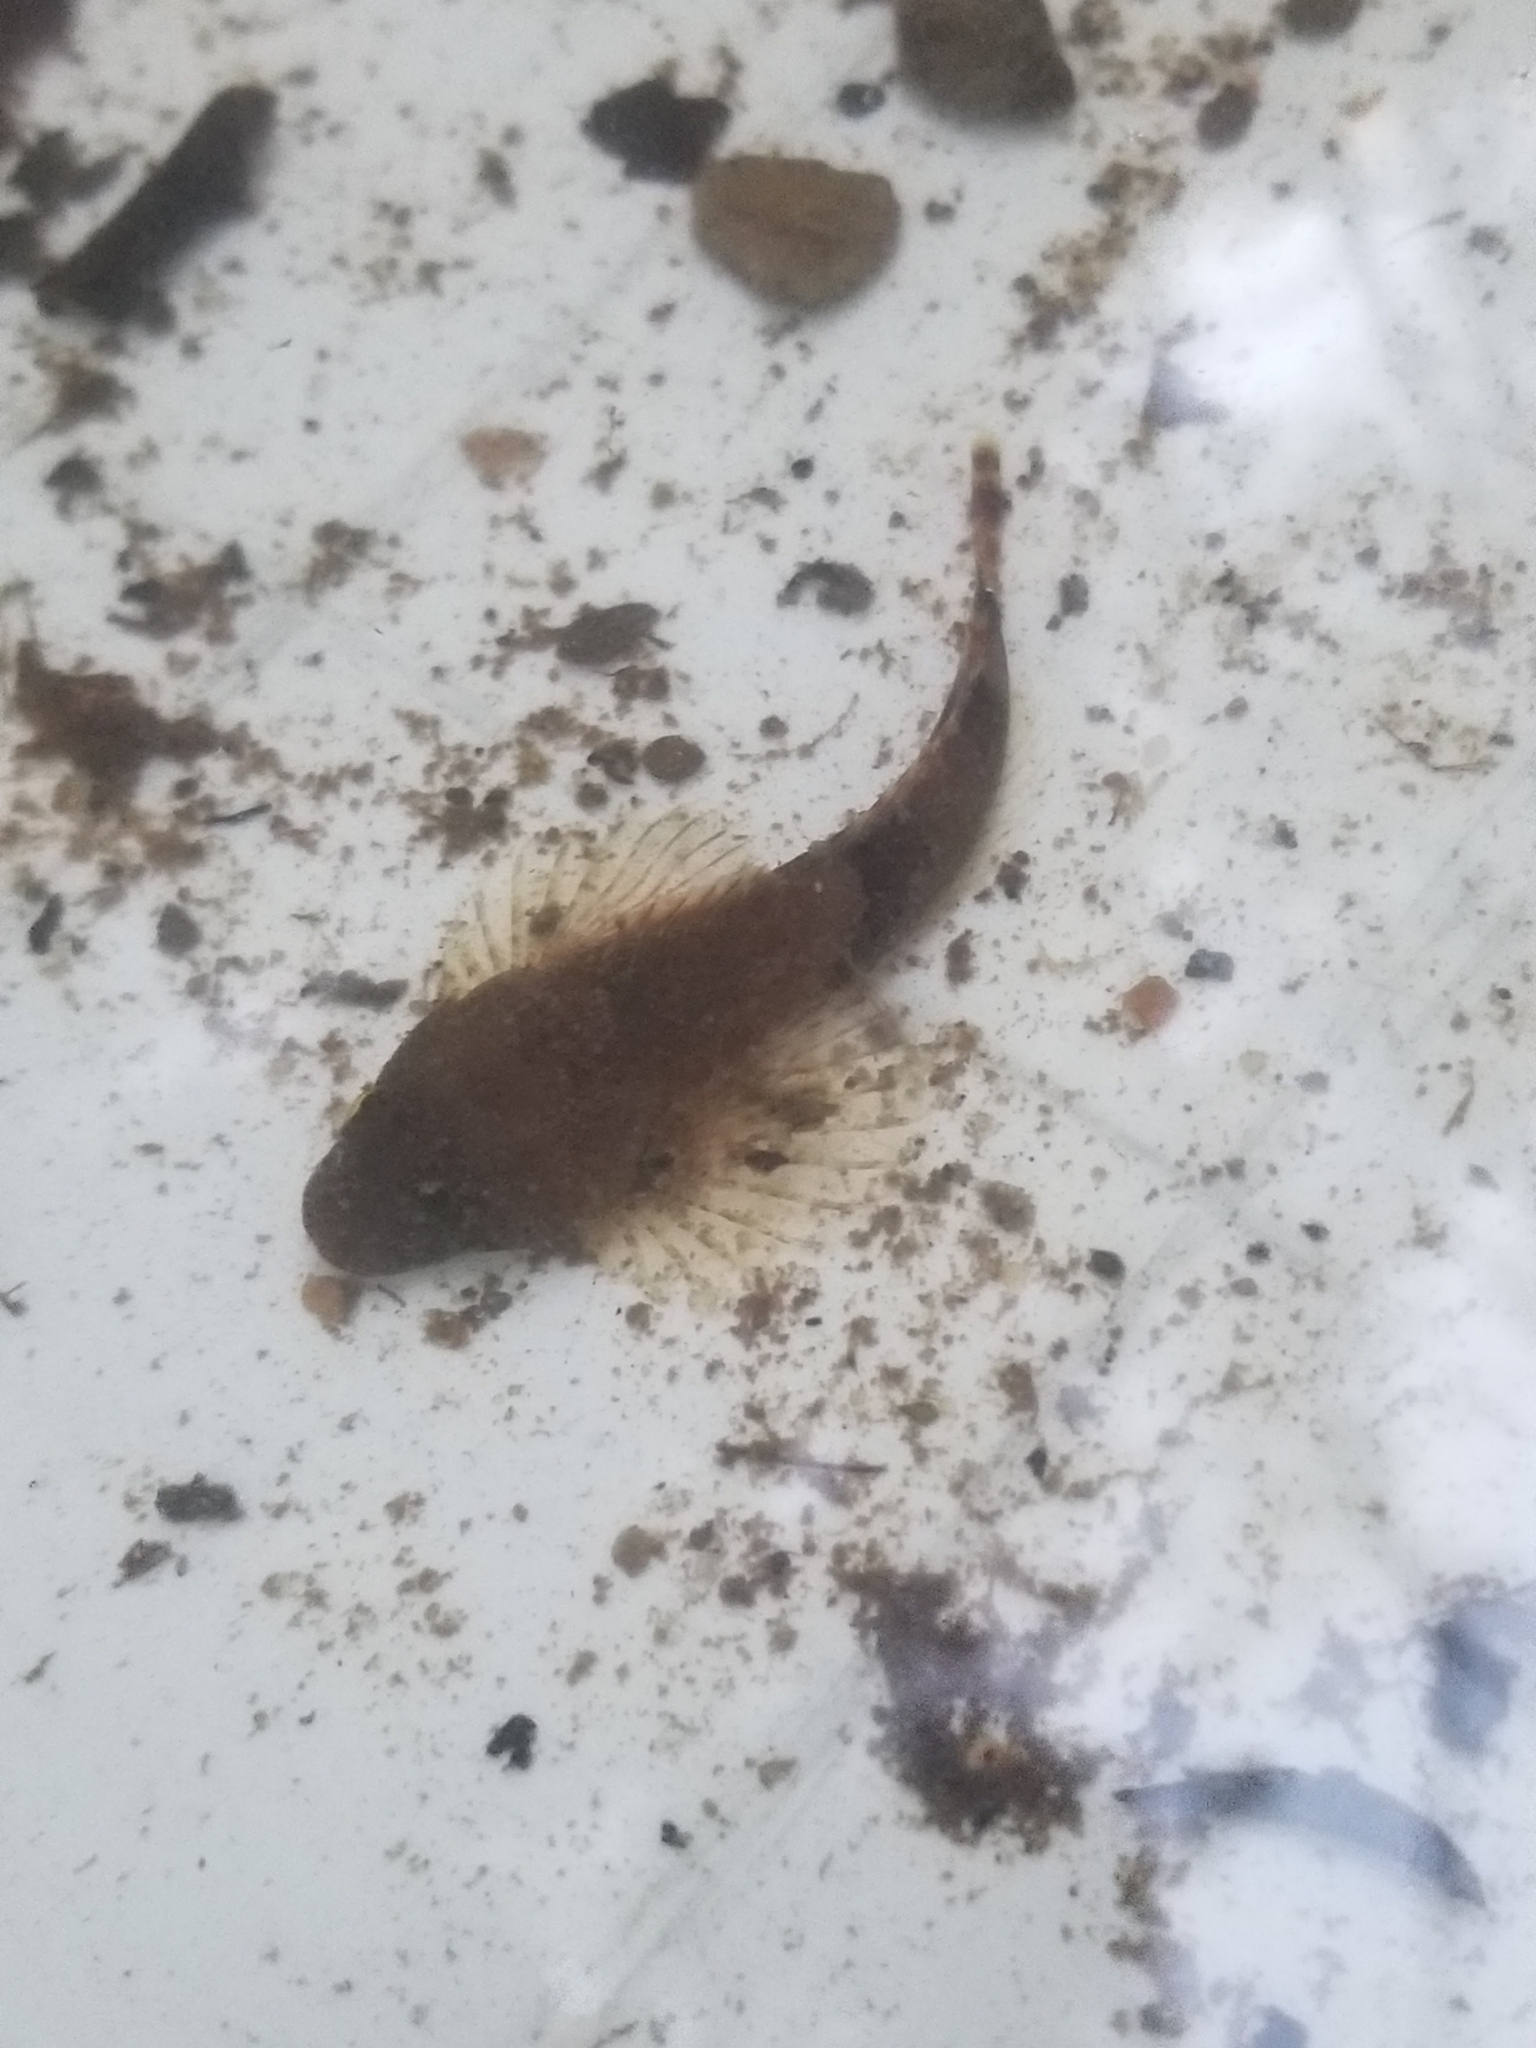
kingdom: Animalia
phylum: Chordata
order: Scorpaeniformes
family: Cottidae
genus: Cottus
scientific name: Cottus bairdii
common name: Mottled sculpin
